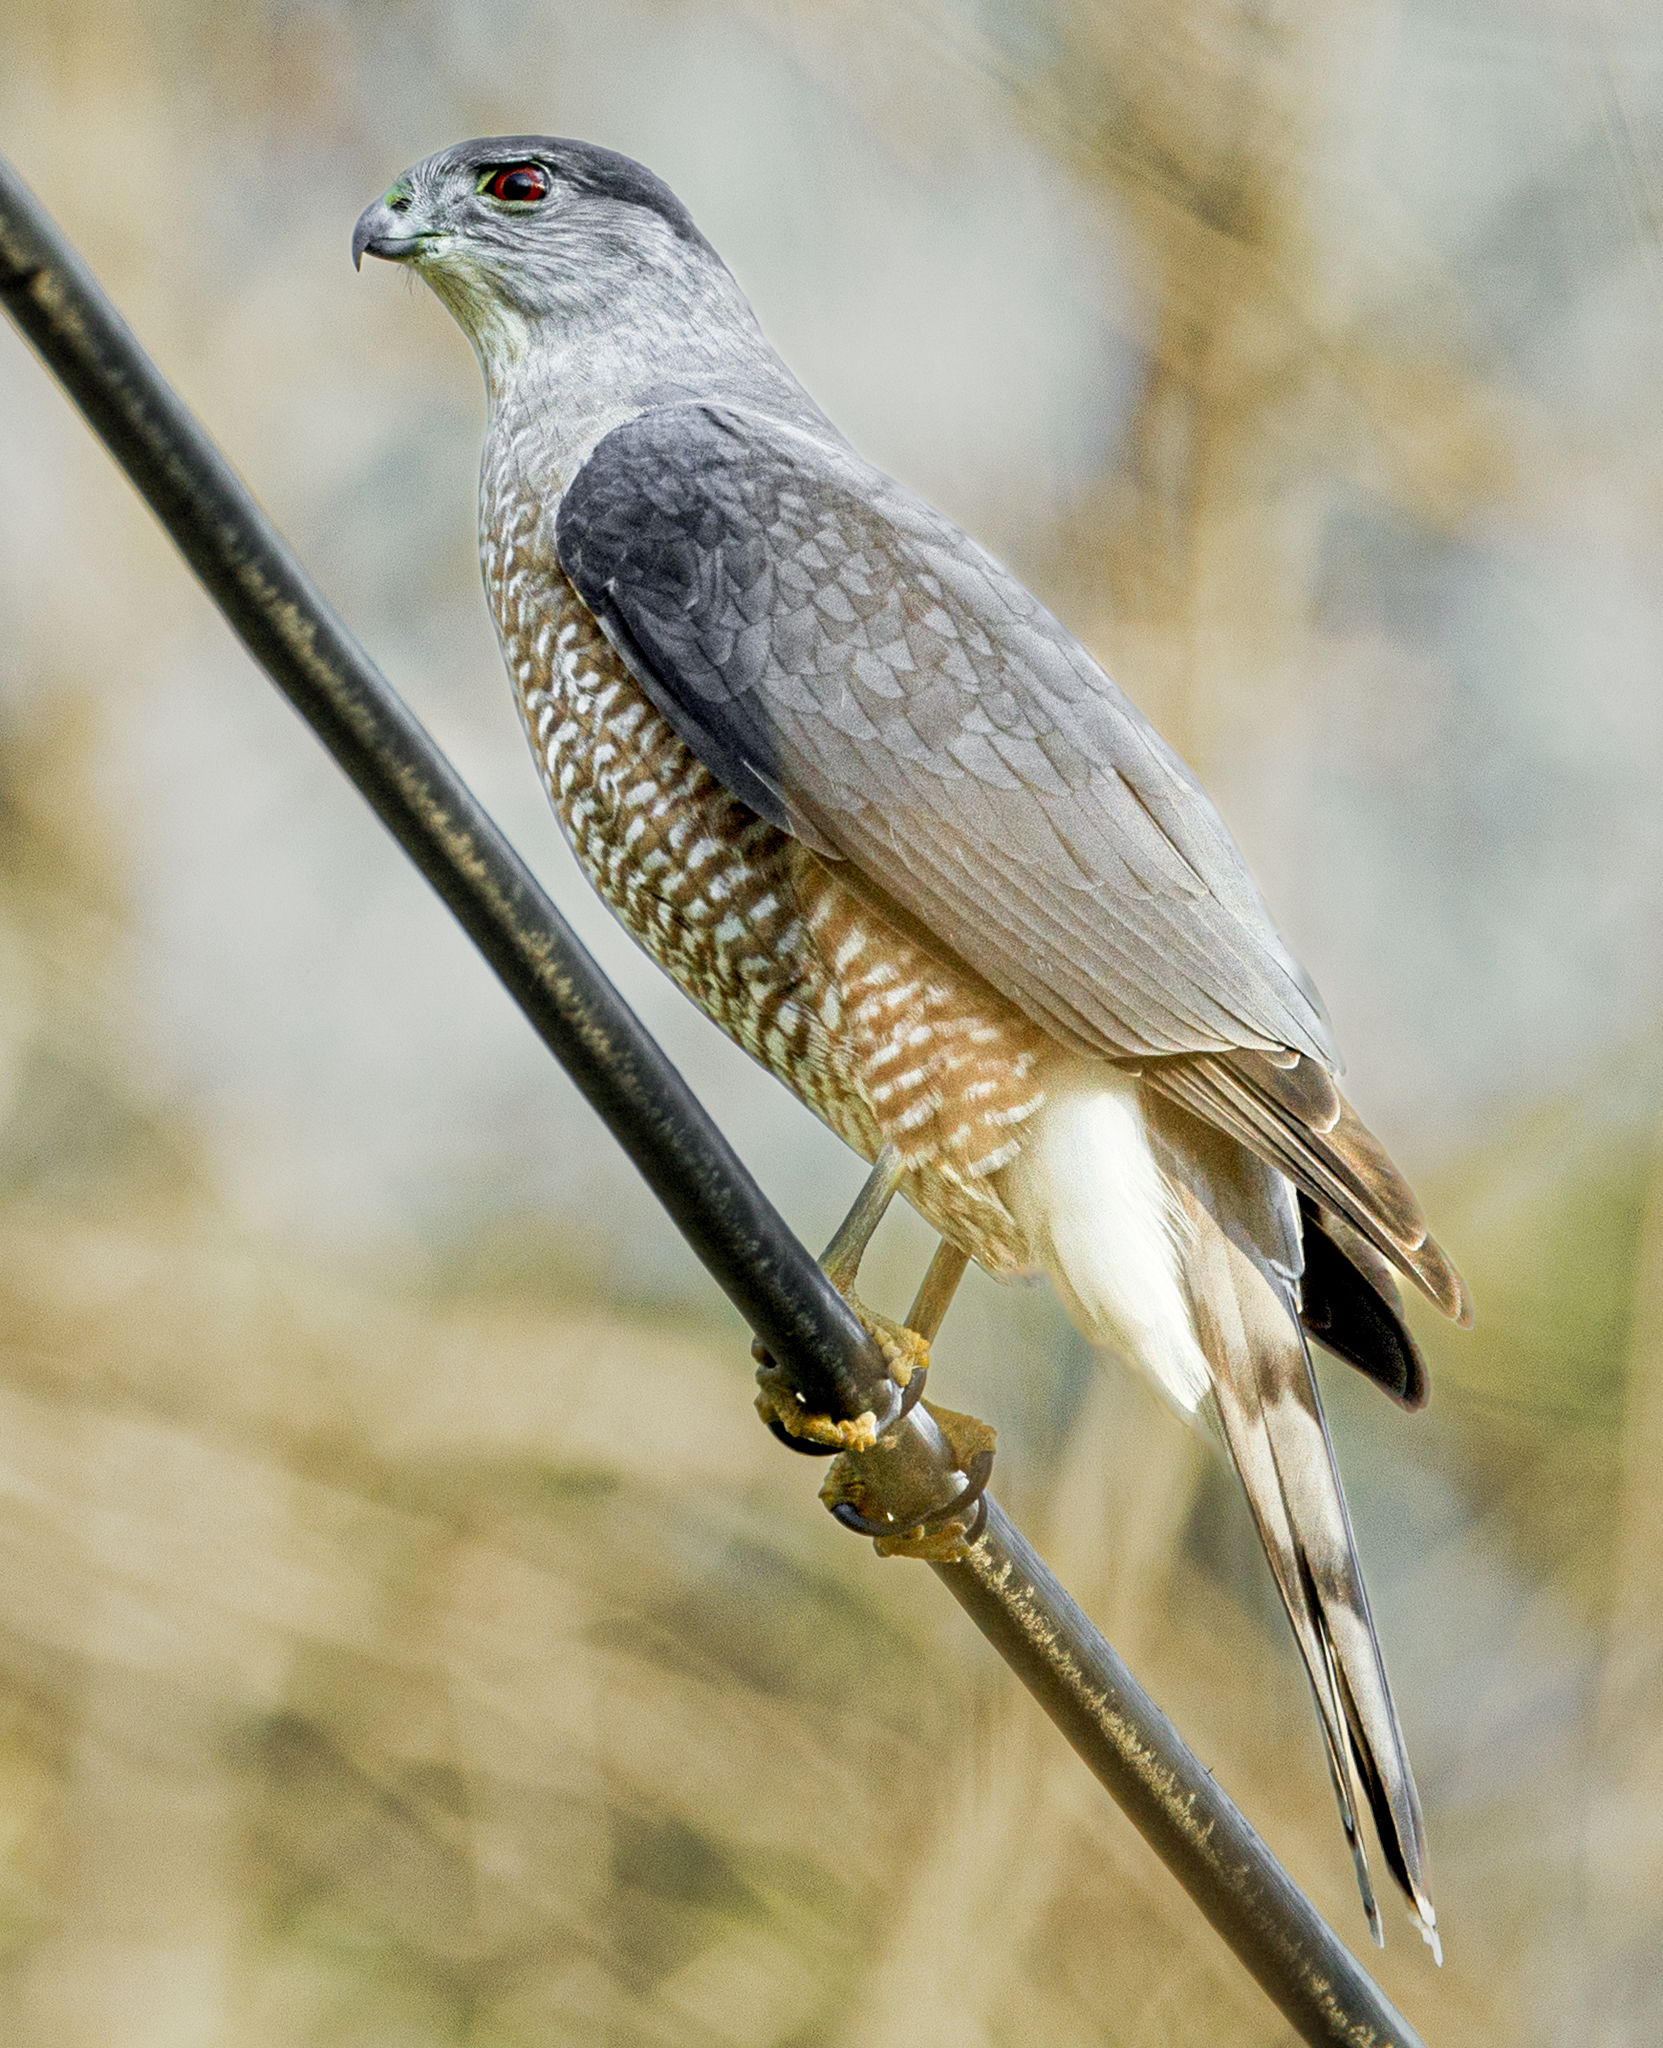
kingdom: Animalia
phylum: Chordata
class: Aves
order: Accipitriformes
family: Accipitridae
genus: Accipiter
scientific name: Accipiter cooperii
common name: Cooper's hawk
